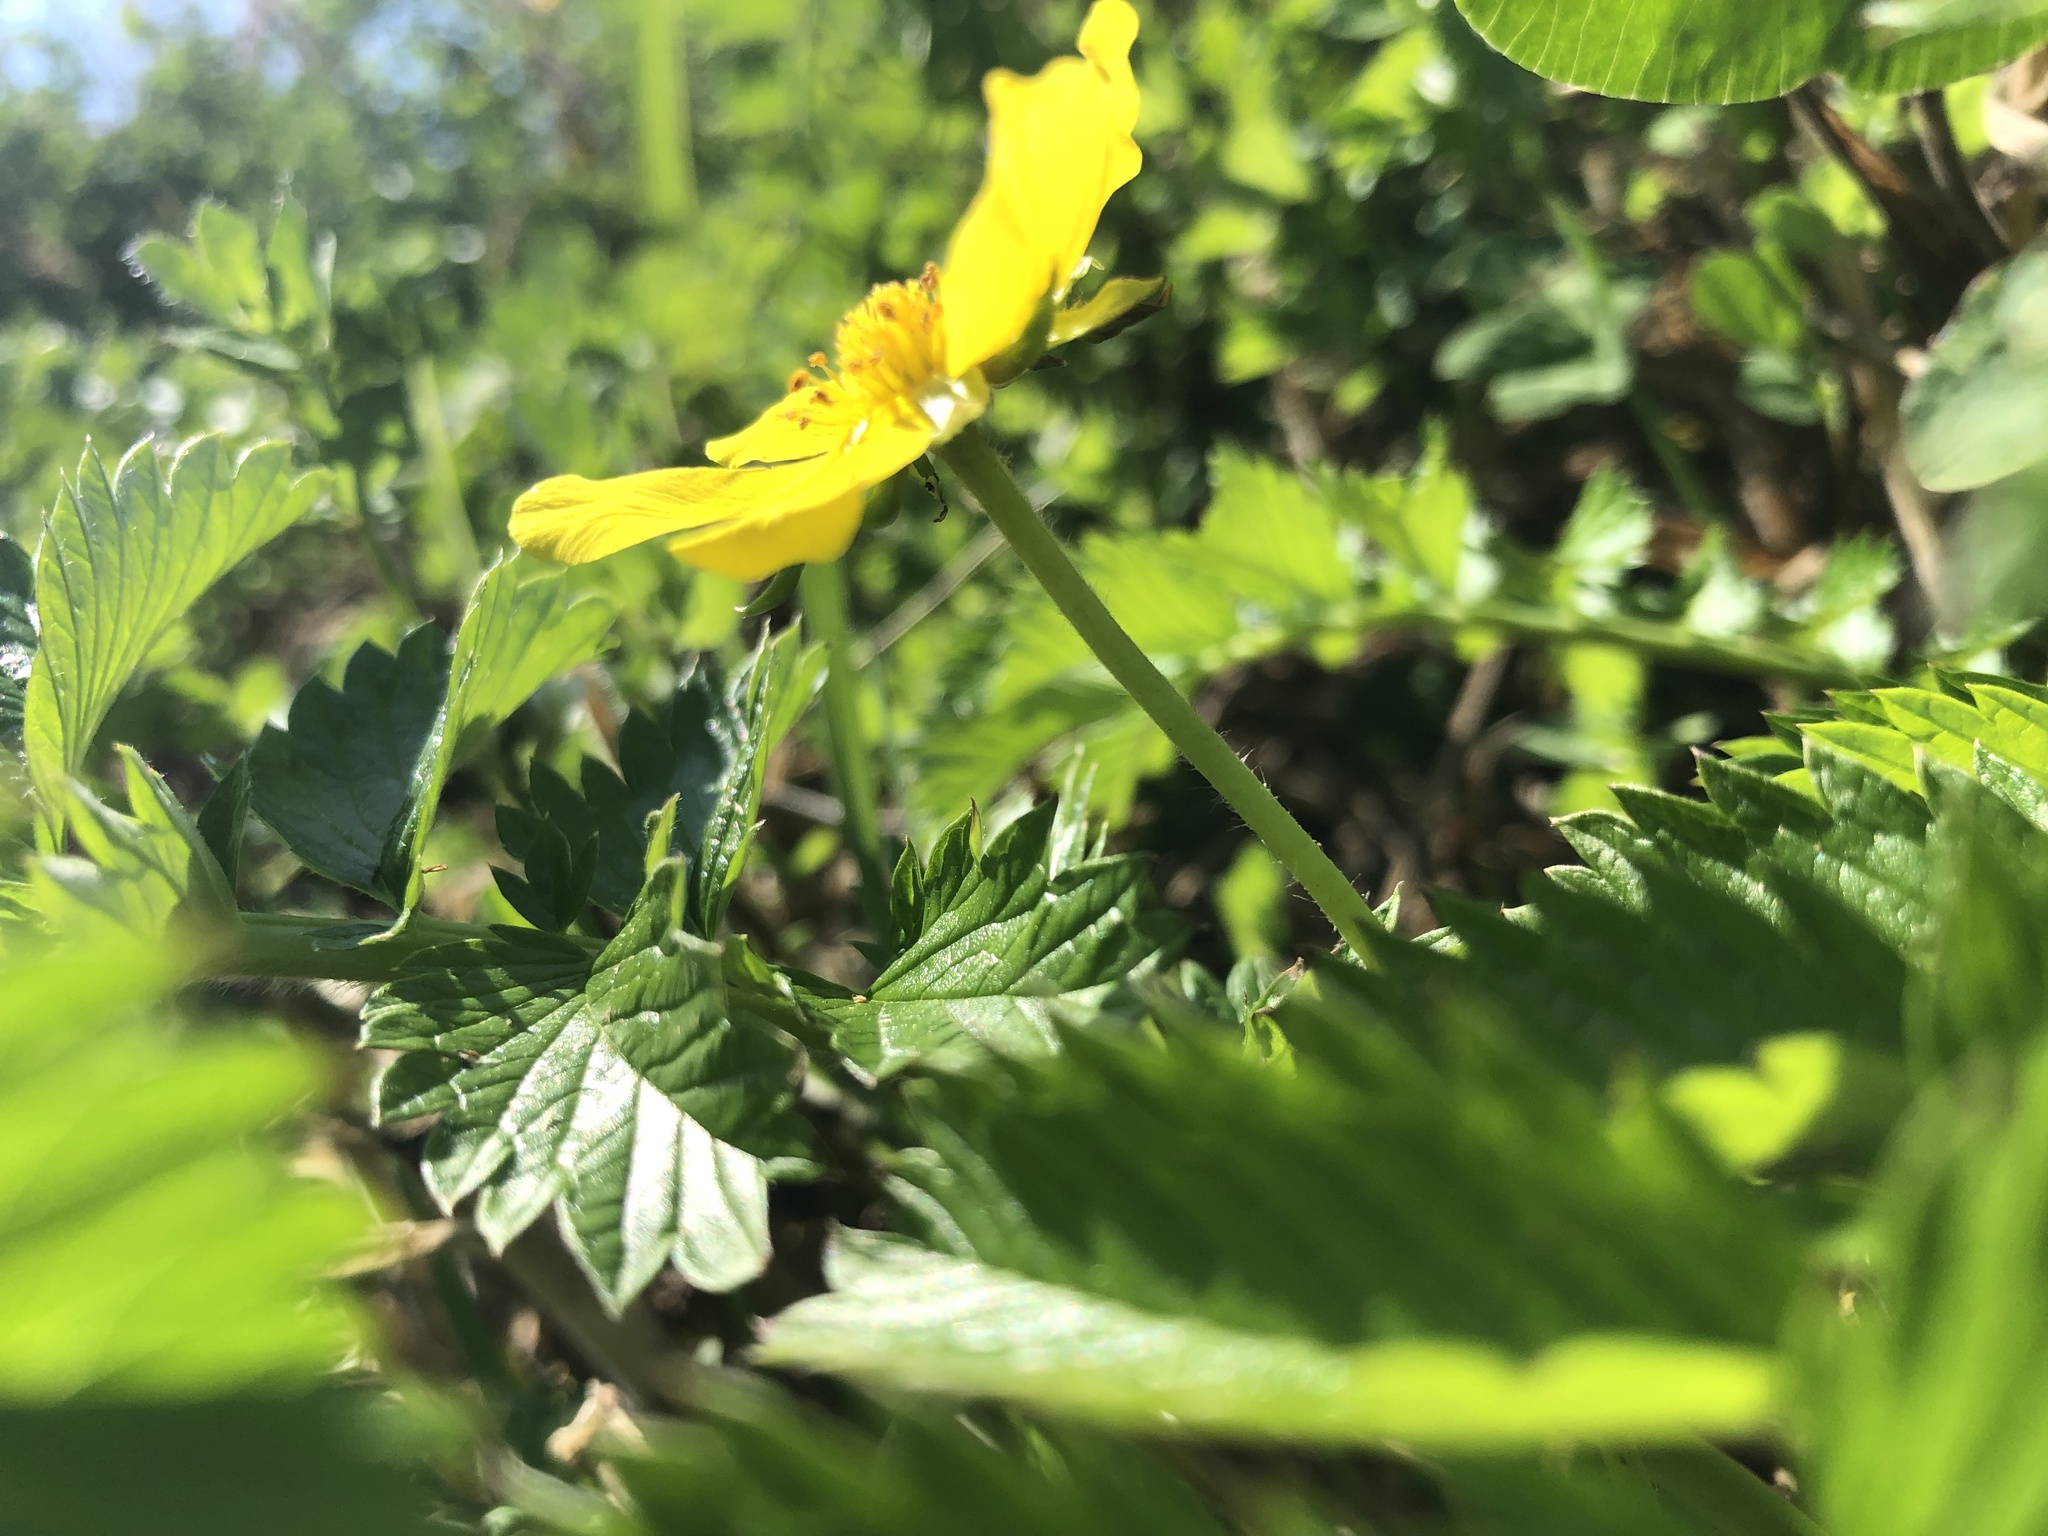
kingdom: Plantae
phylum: Tracheophyta
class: Magnoliopsida
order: Rosales
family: Rosaceae
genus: Argentina
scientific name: Argentina anserina
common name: Common silverweed
